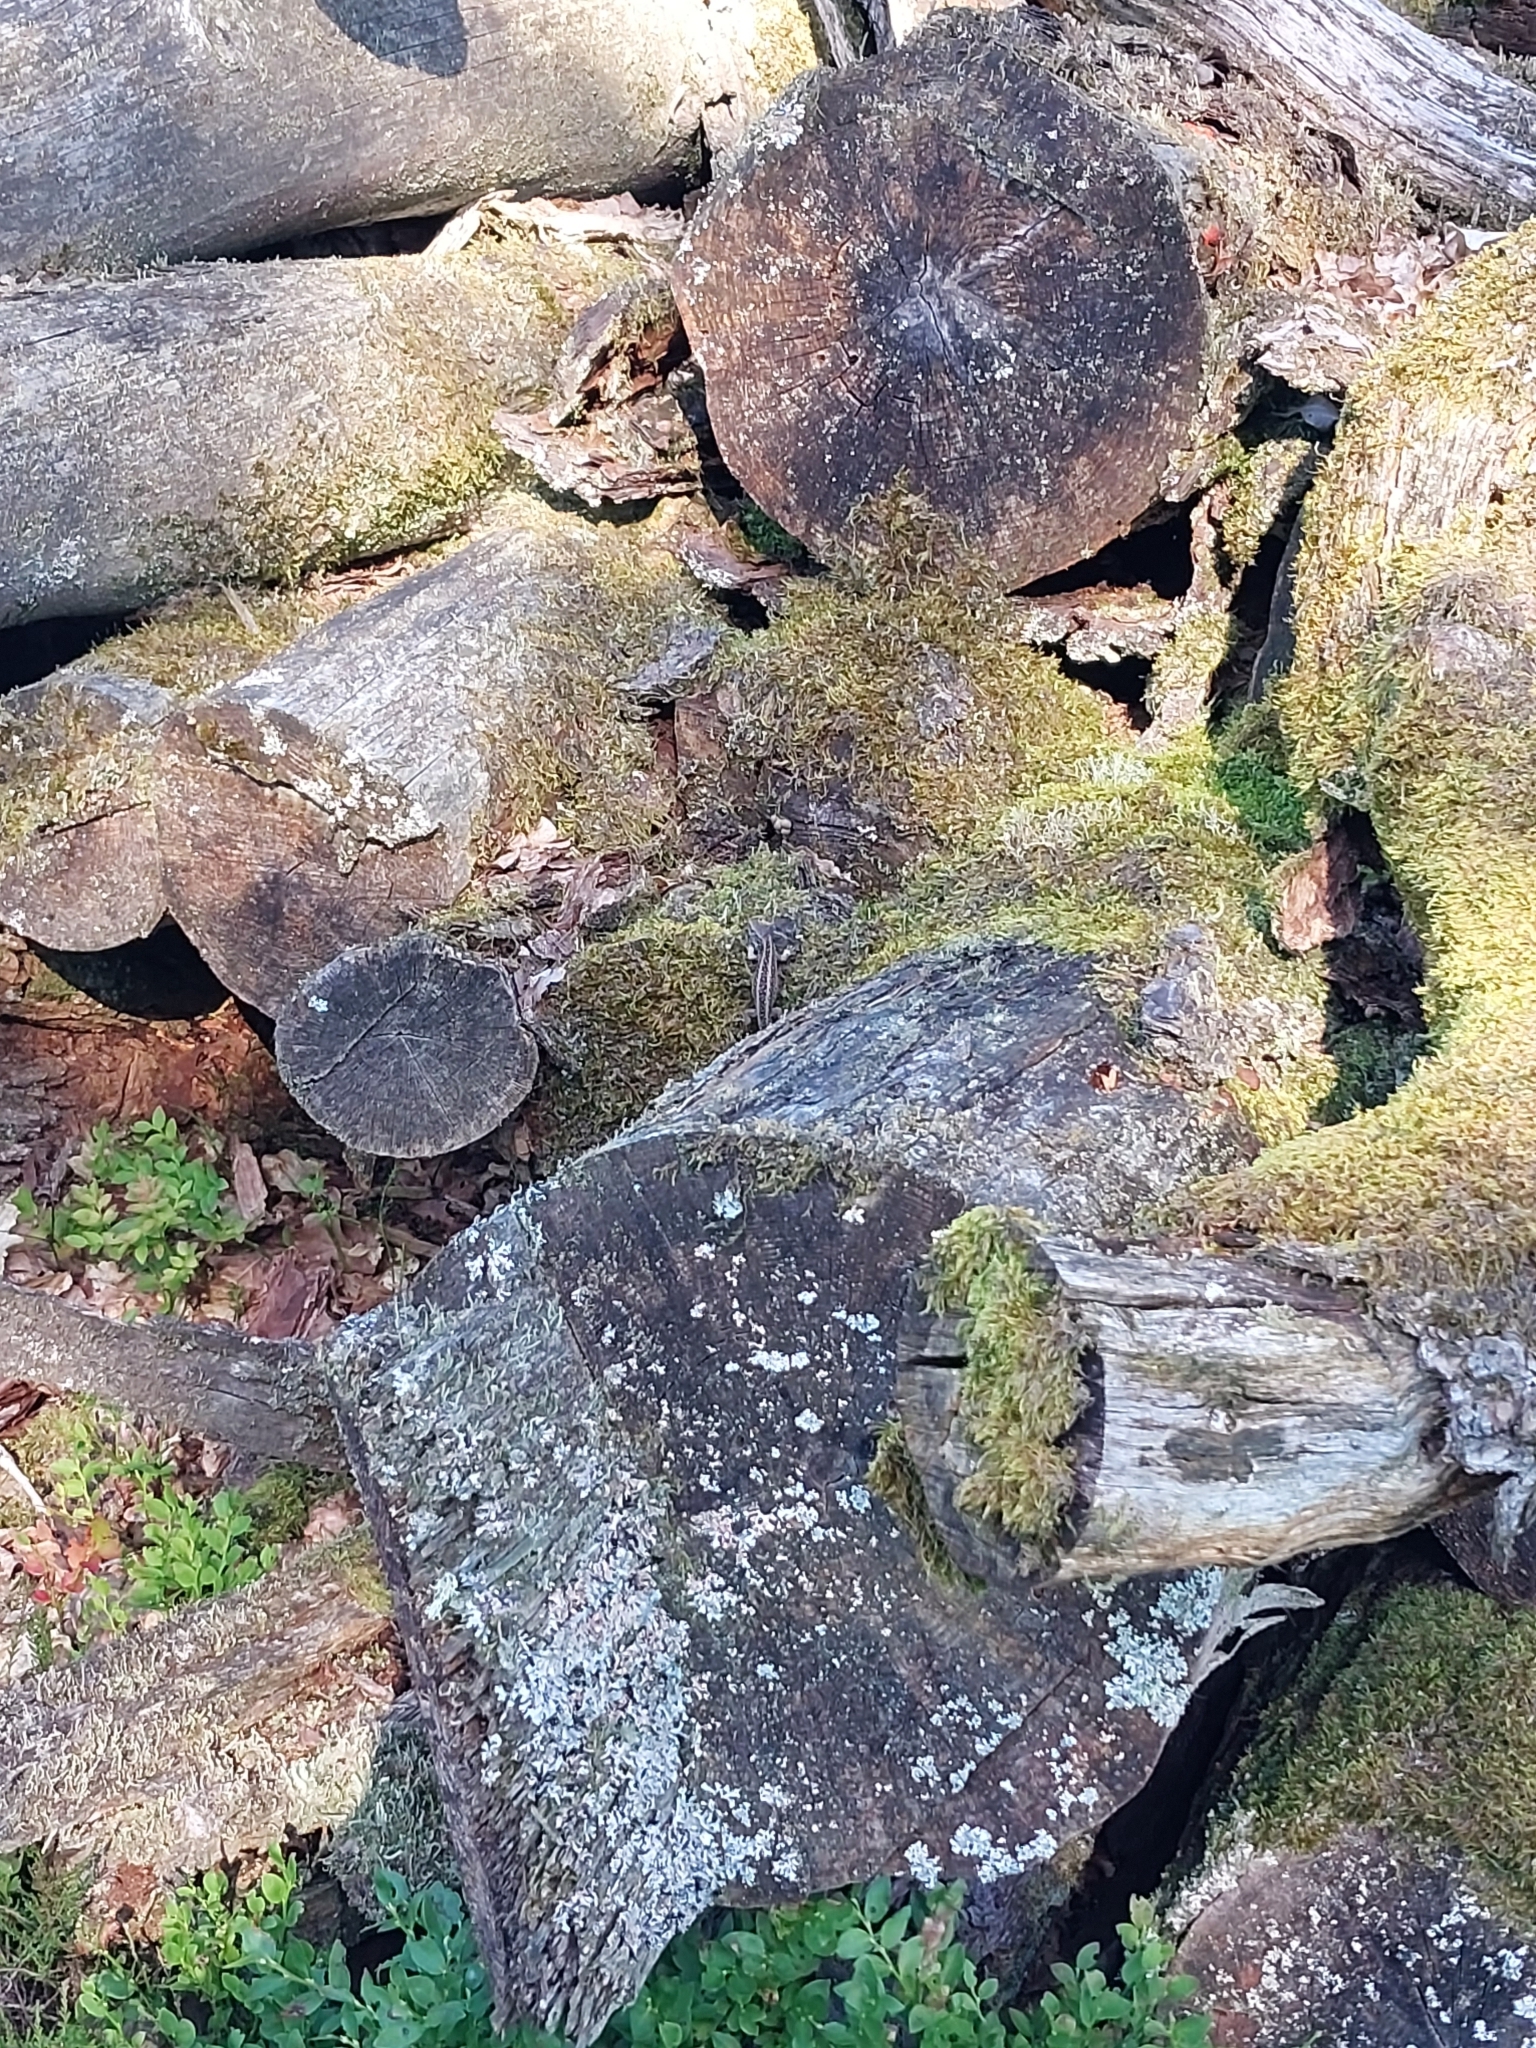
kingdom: Animalia
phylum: Chordata
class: Squamata
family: Lacertidae
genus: Lacerta
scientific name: Lacerta agilis
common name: Sand lizard
